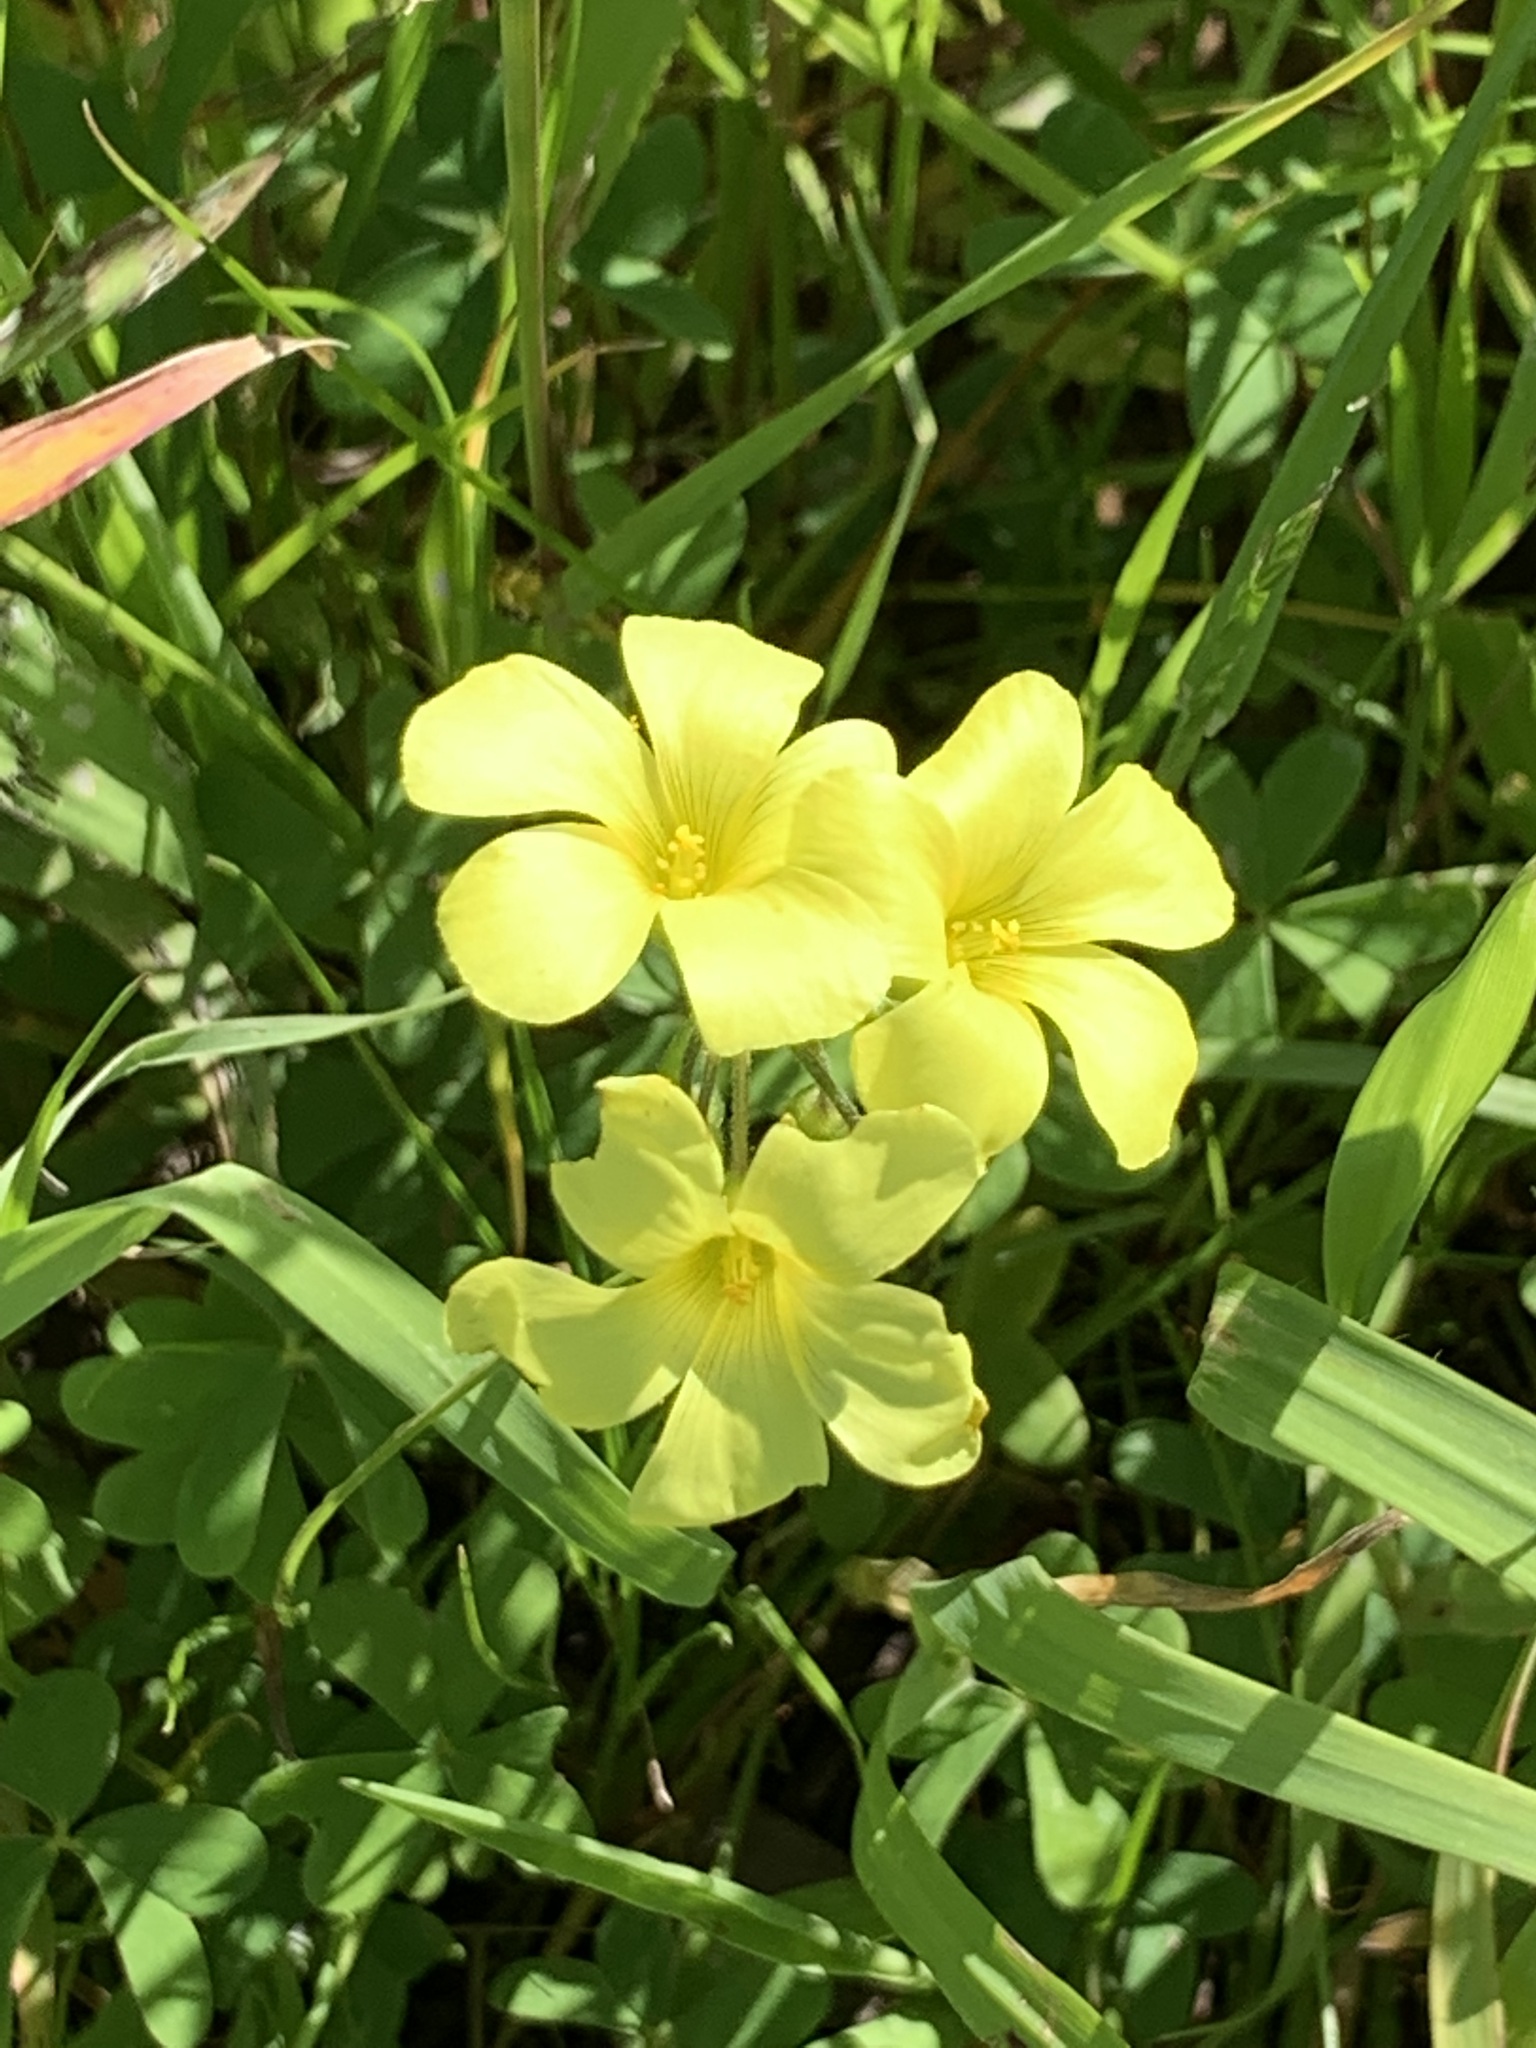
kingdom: Plantae
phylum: Tracheophyta
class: Magnoliopsida
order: Oxalidales
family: Oxalidaceae
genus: Oxalis
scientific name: Oxalis pes-caprae
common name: Bermuda-buttercup
